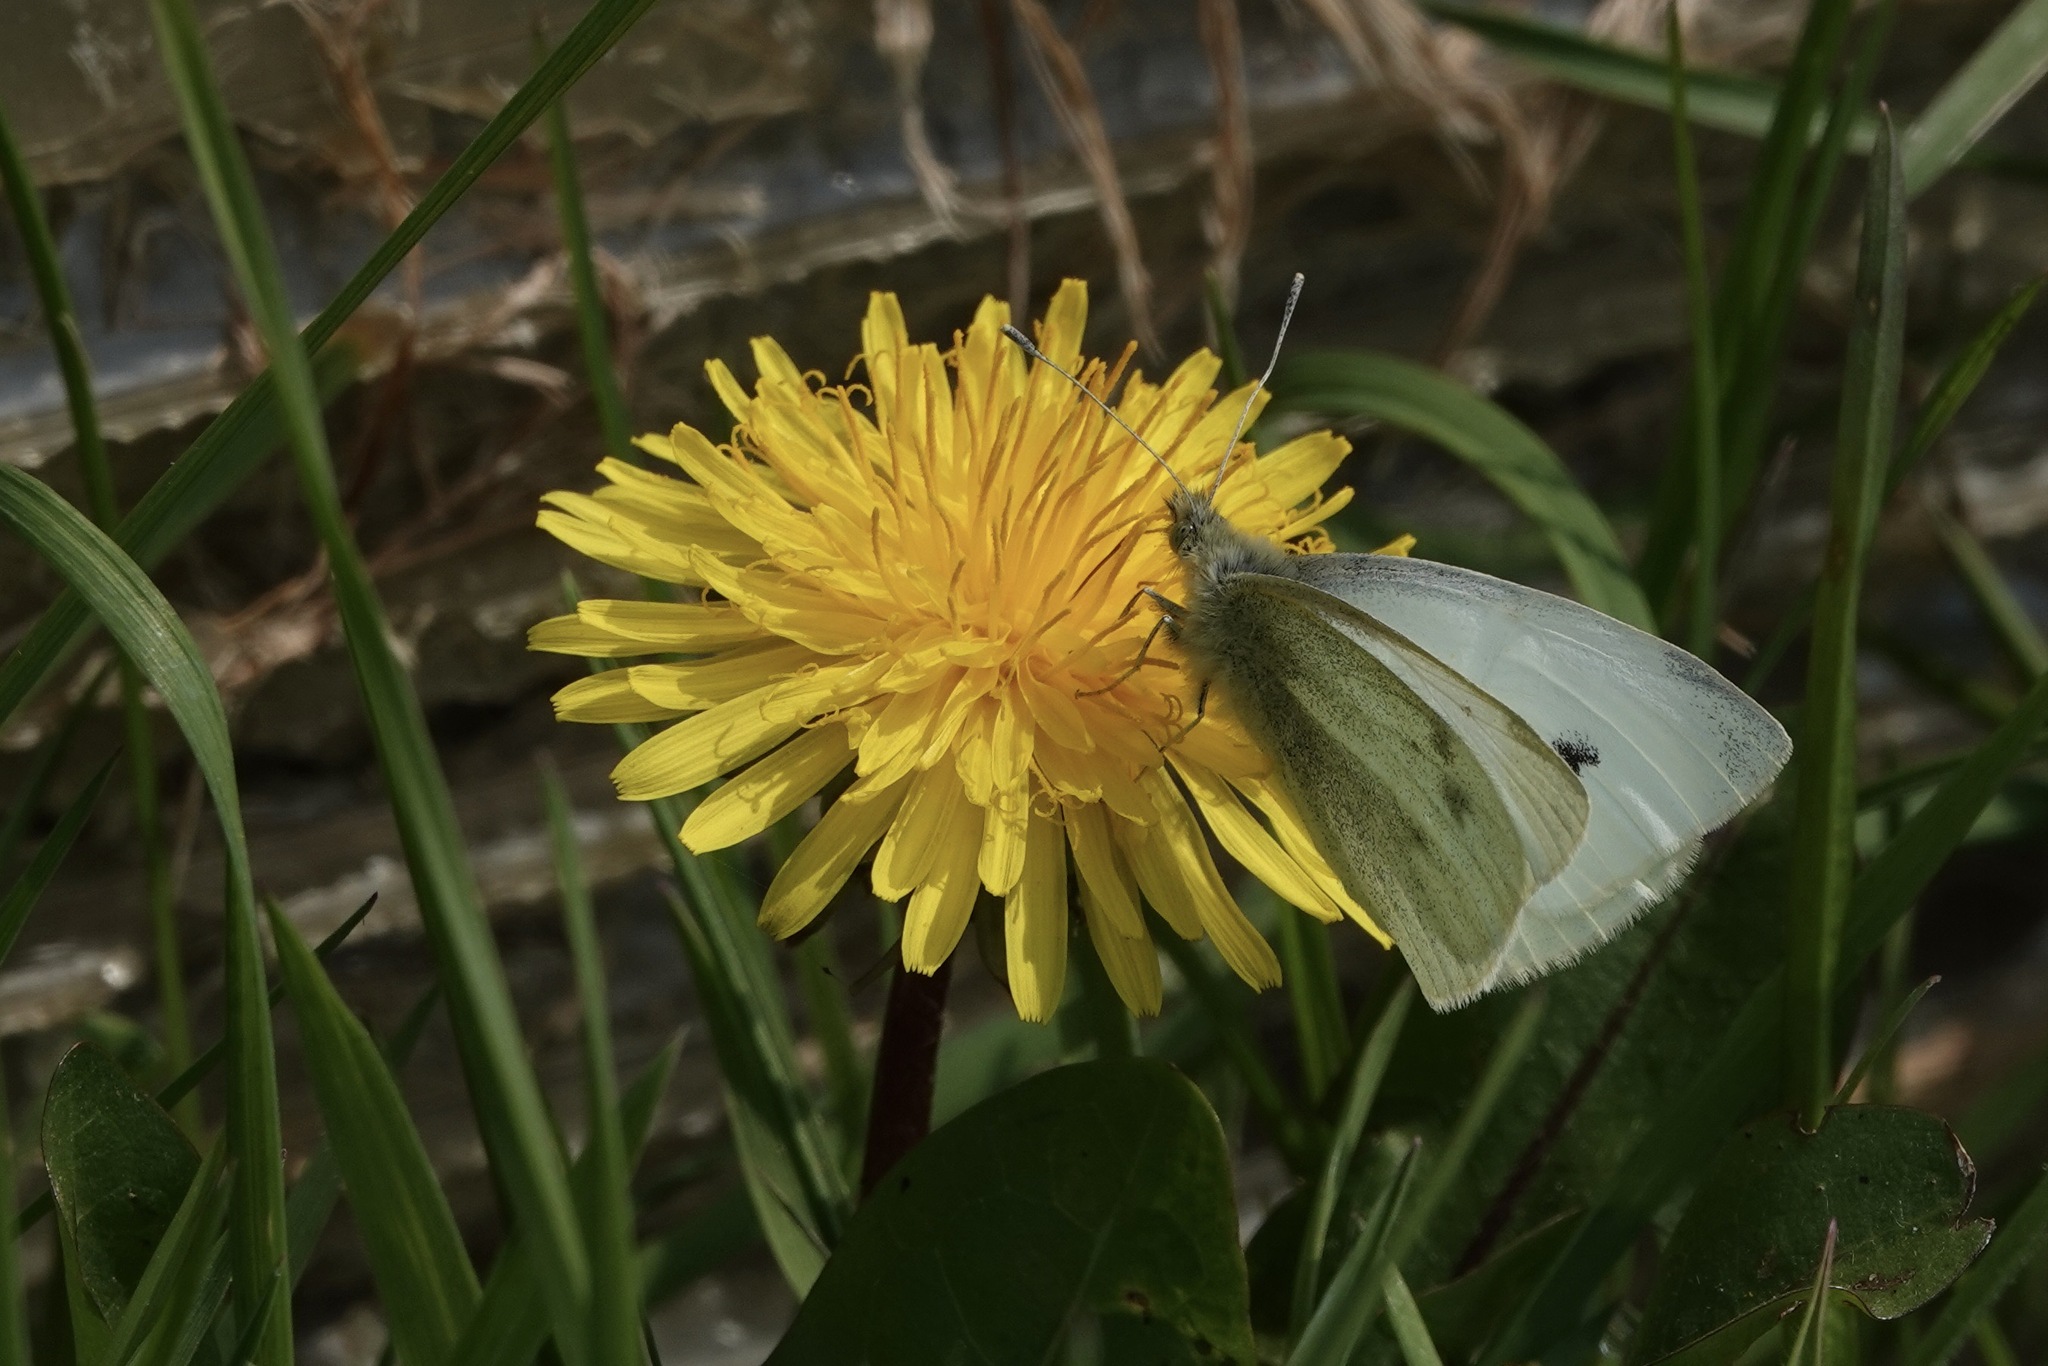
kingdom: Animalia
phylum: Arthropoda
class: Insecta
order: Lepidoptera
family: Pieridae
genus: Pieris
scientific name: Pieris rapae
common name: Small white
